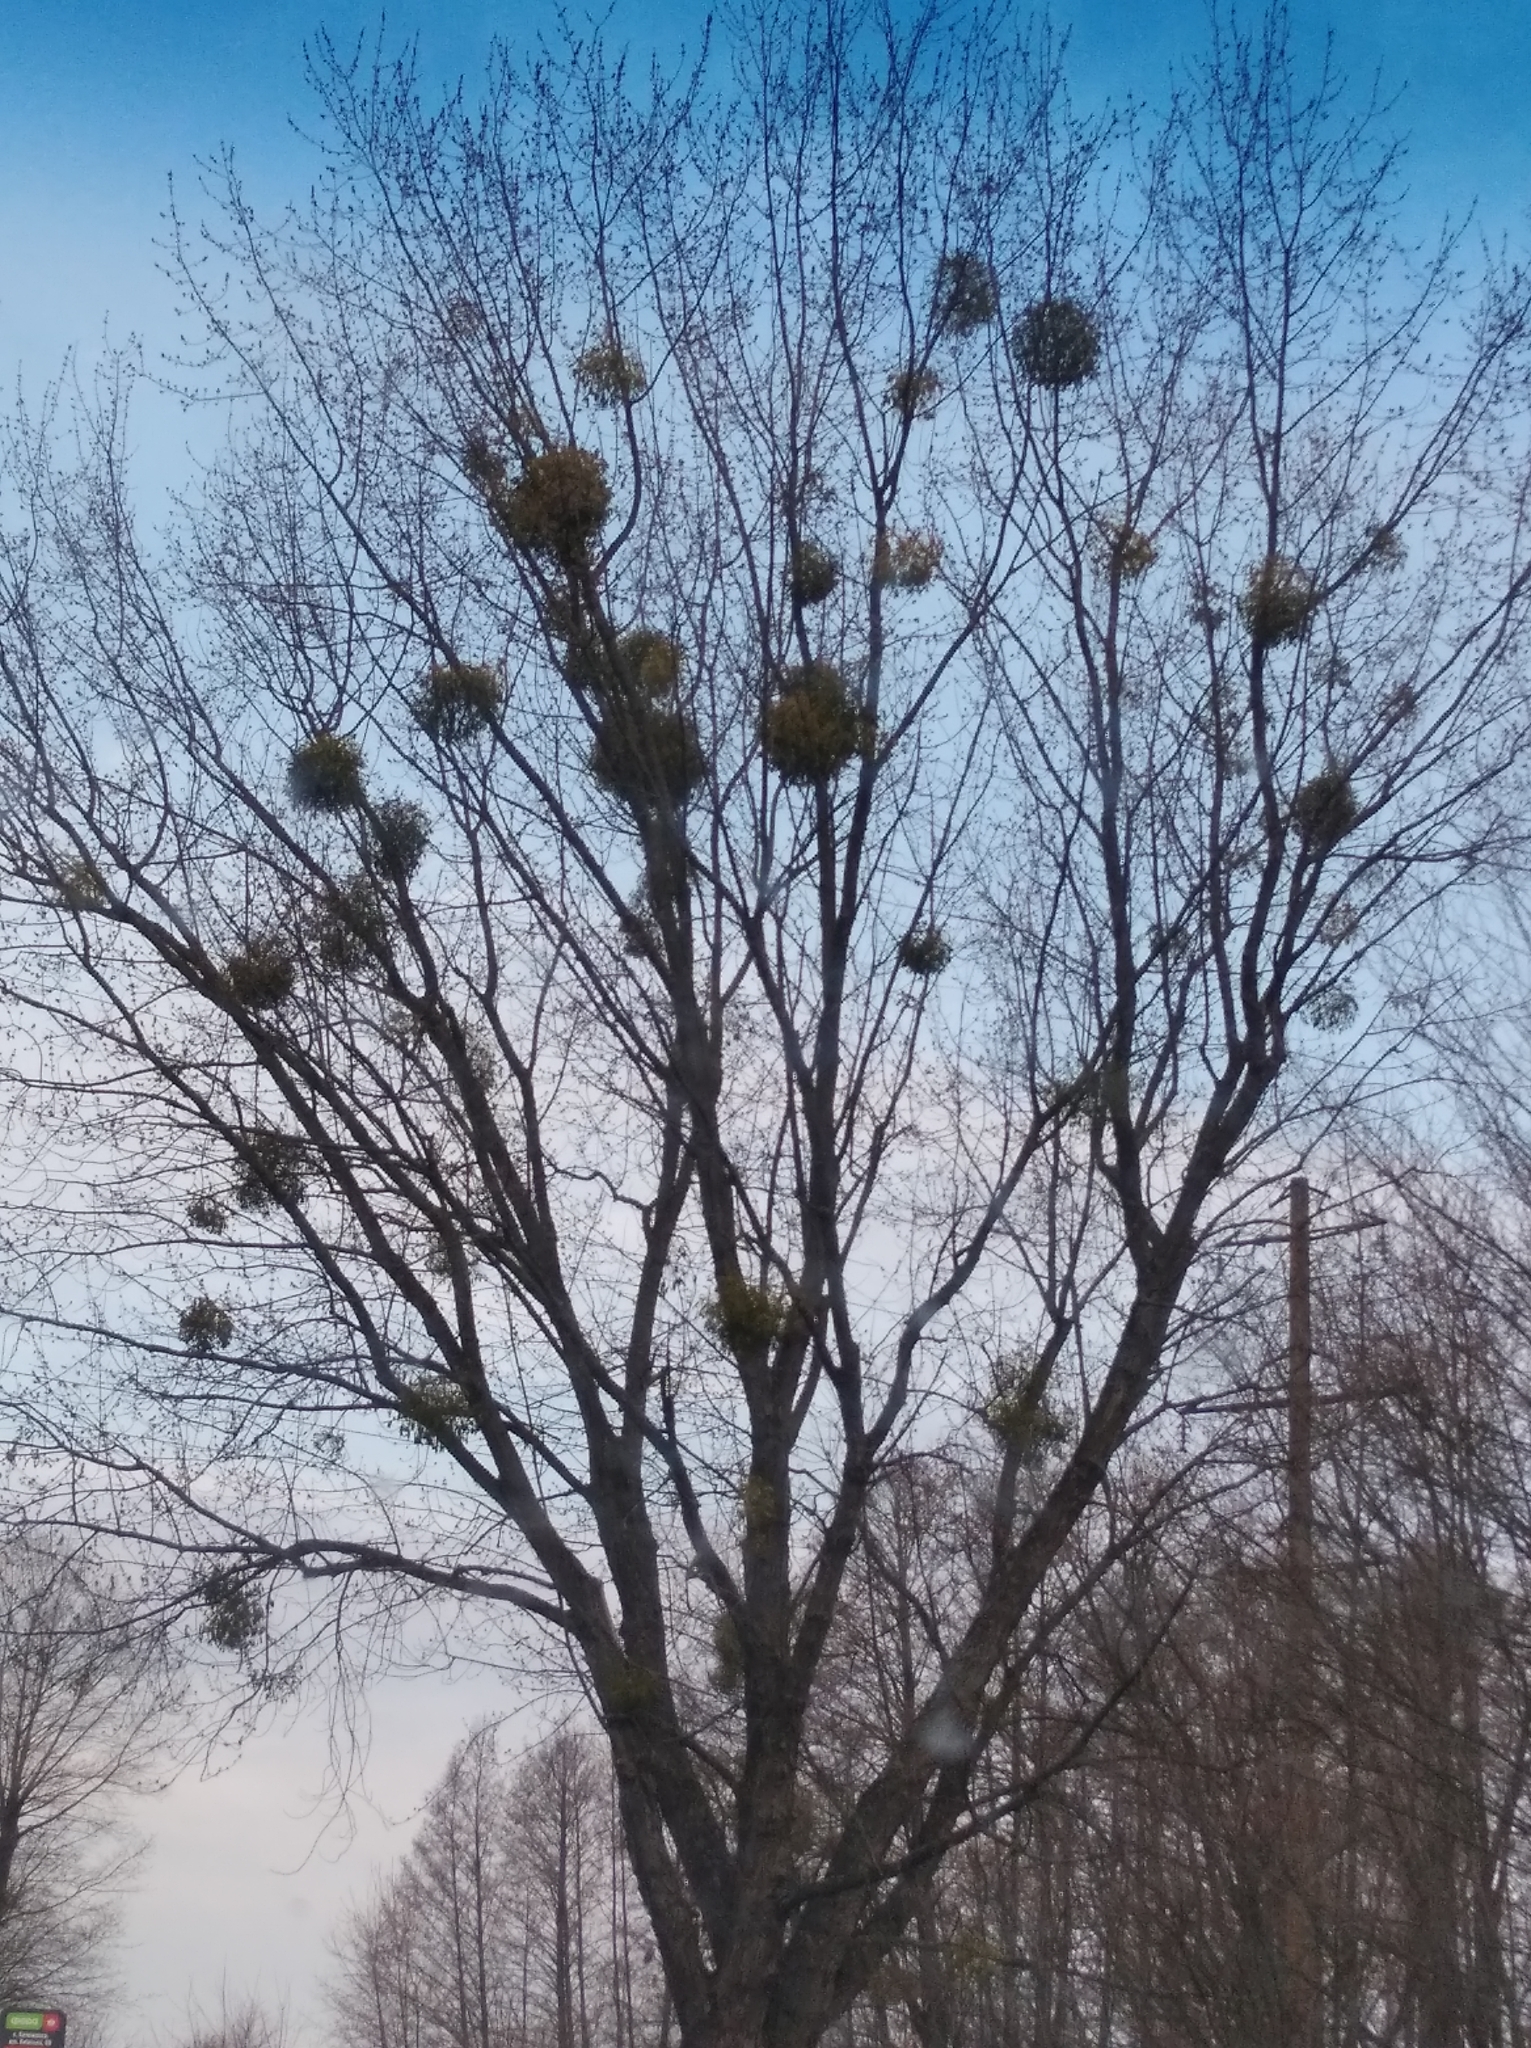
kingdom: Plantae
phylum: Tracheophyta
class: Magnoliopsida
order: Santalales
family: Viscaceae
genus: Viscum
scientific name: Viscum album
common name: Mistletoe
